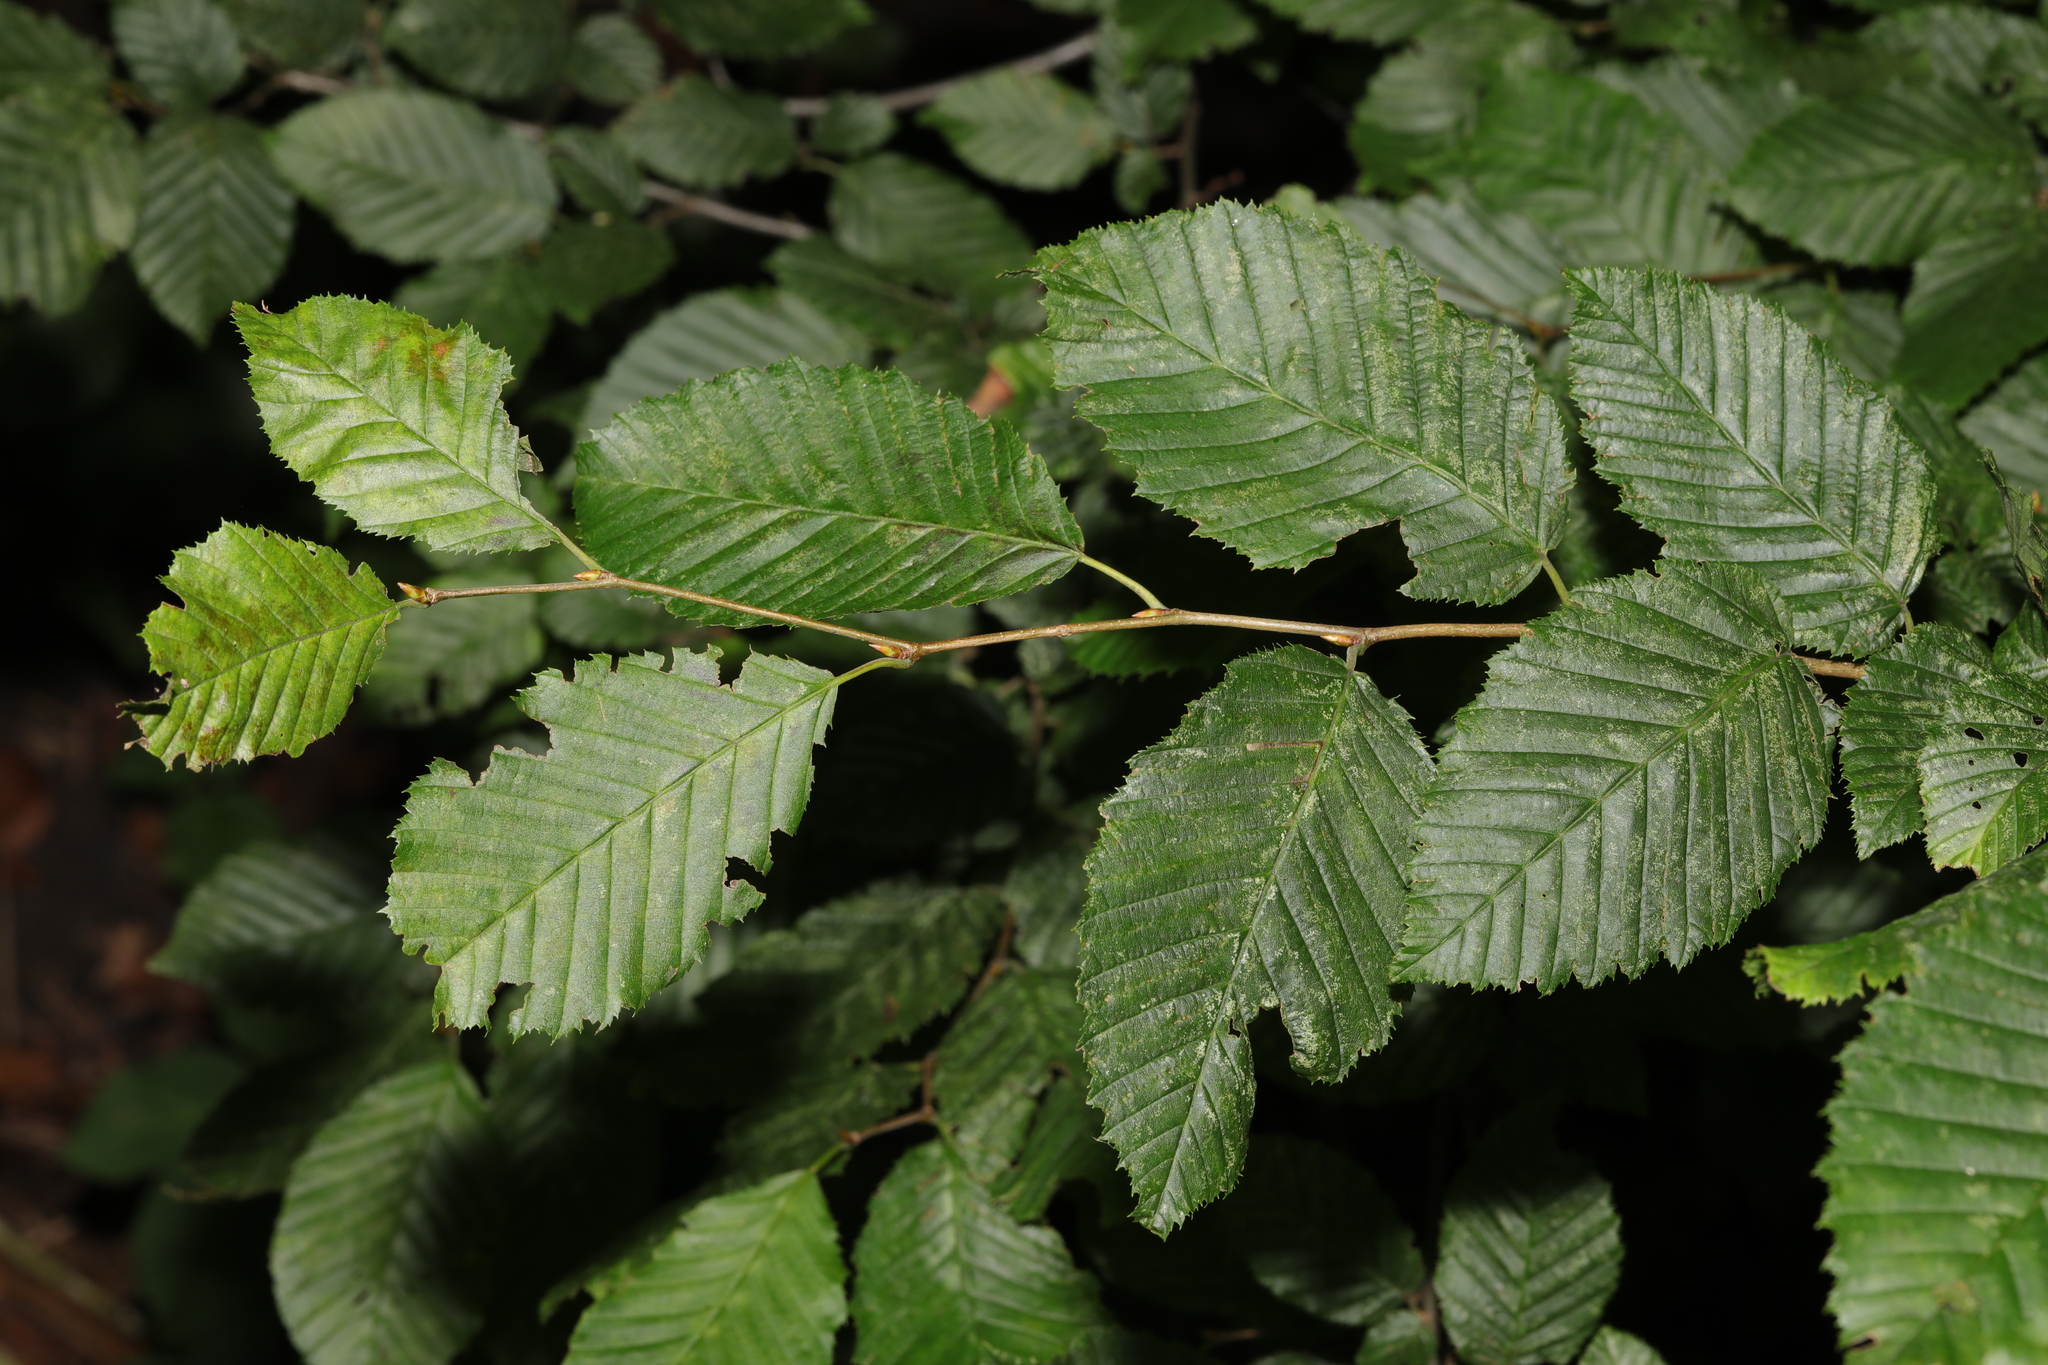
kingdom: Plantae
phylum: Tracheophyta
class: Magnoliopsida
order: Fagales
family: Betulaceae
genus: Carpinus
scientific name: Carpinus betulus
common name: Hornbeam
